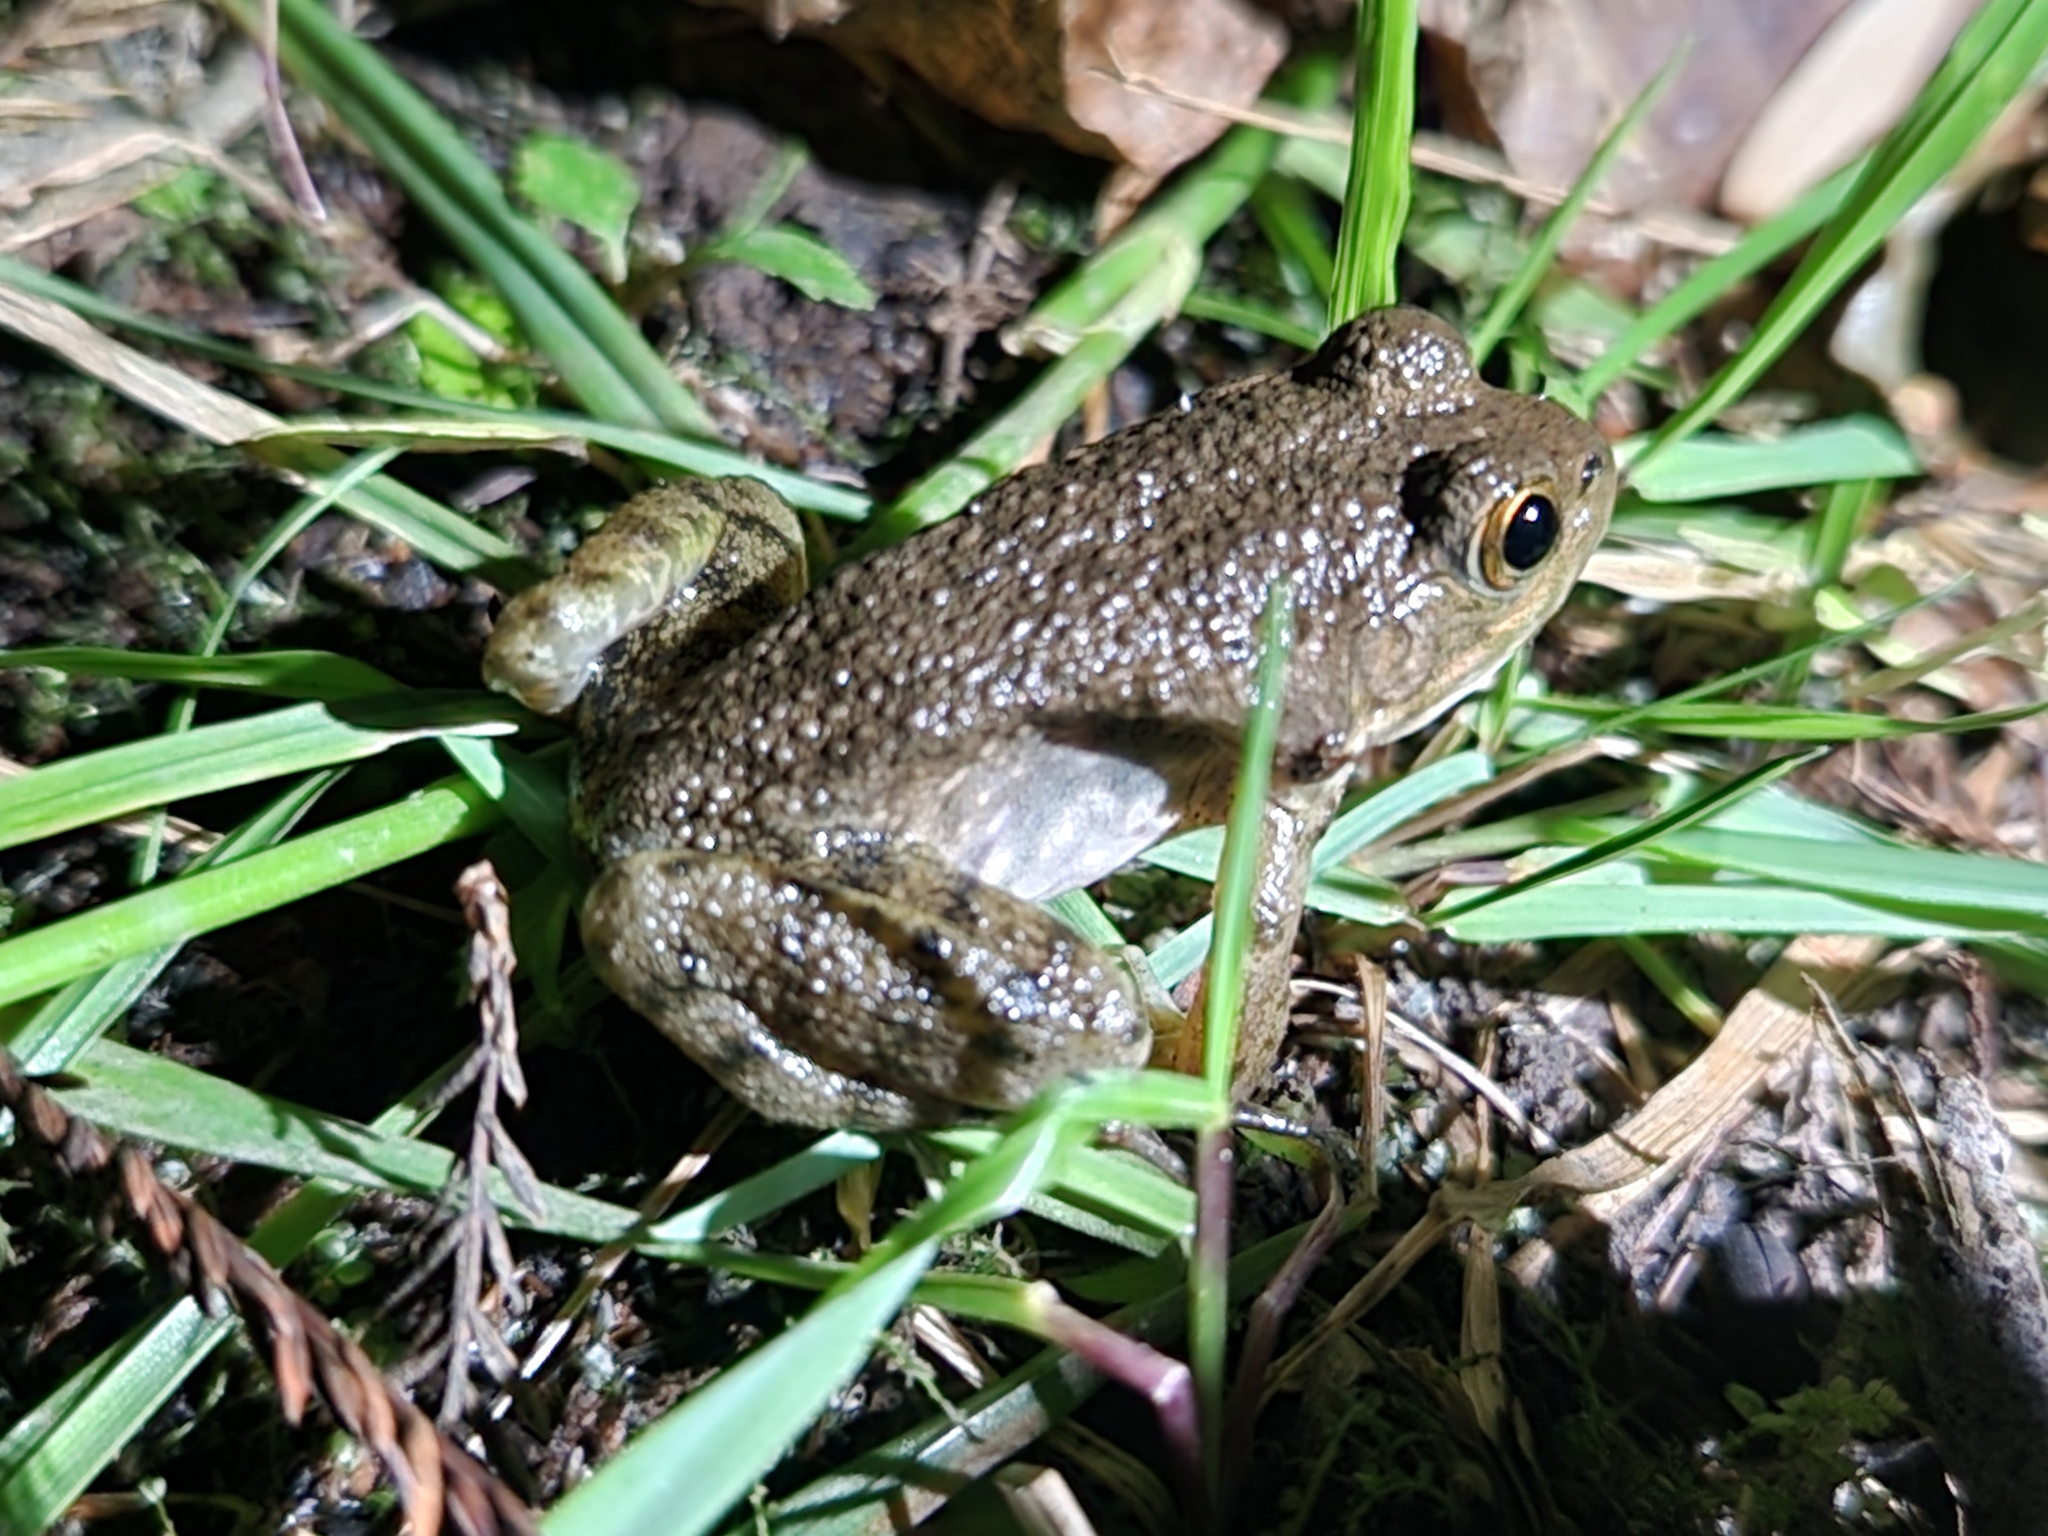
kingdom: Animalia
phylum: Chordata
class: Amphibia
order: Anura
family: Ranidae
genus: Lithobates
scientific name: Lithobates catesbeianus
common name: American bullfrog
